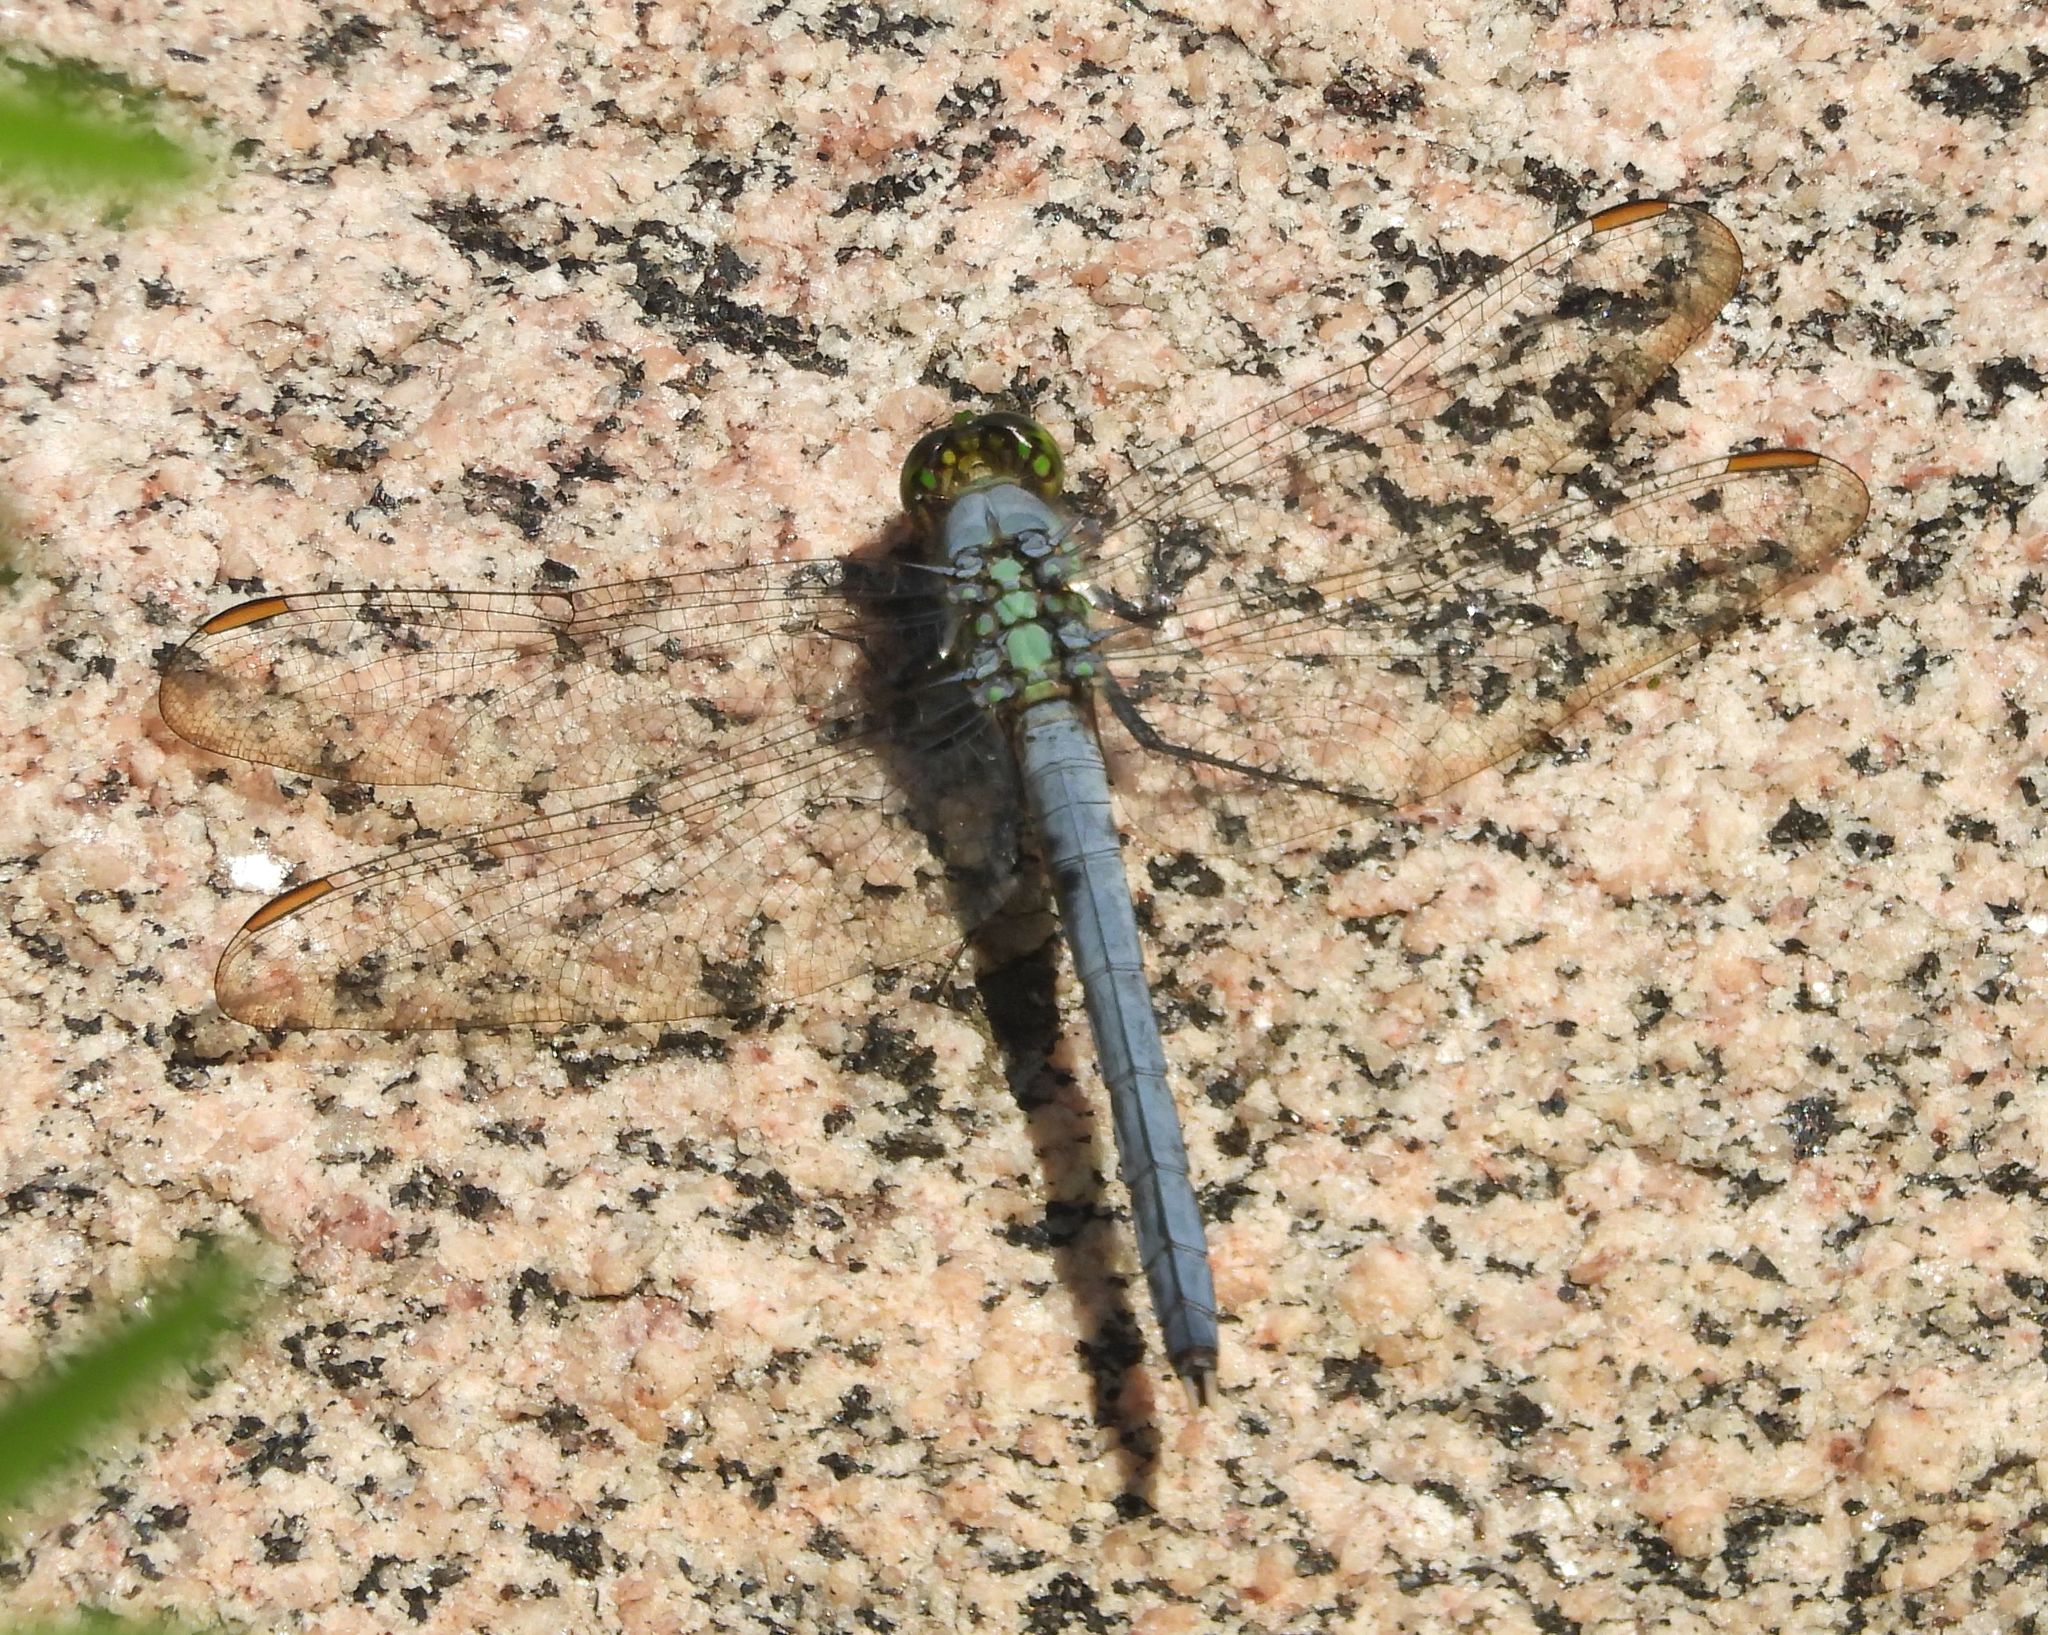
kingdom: Animalia
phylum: Arthropoda
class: Insecta
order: Odonata
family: Libellulidae
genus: Erythemis
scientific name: Erythemis simplicicollis
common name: Eastern pondhawk
